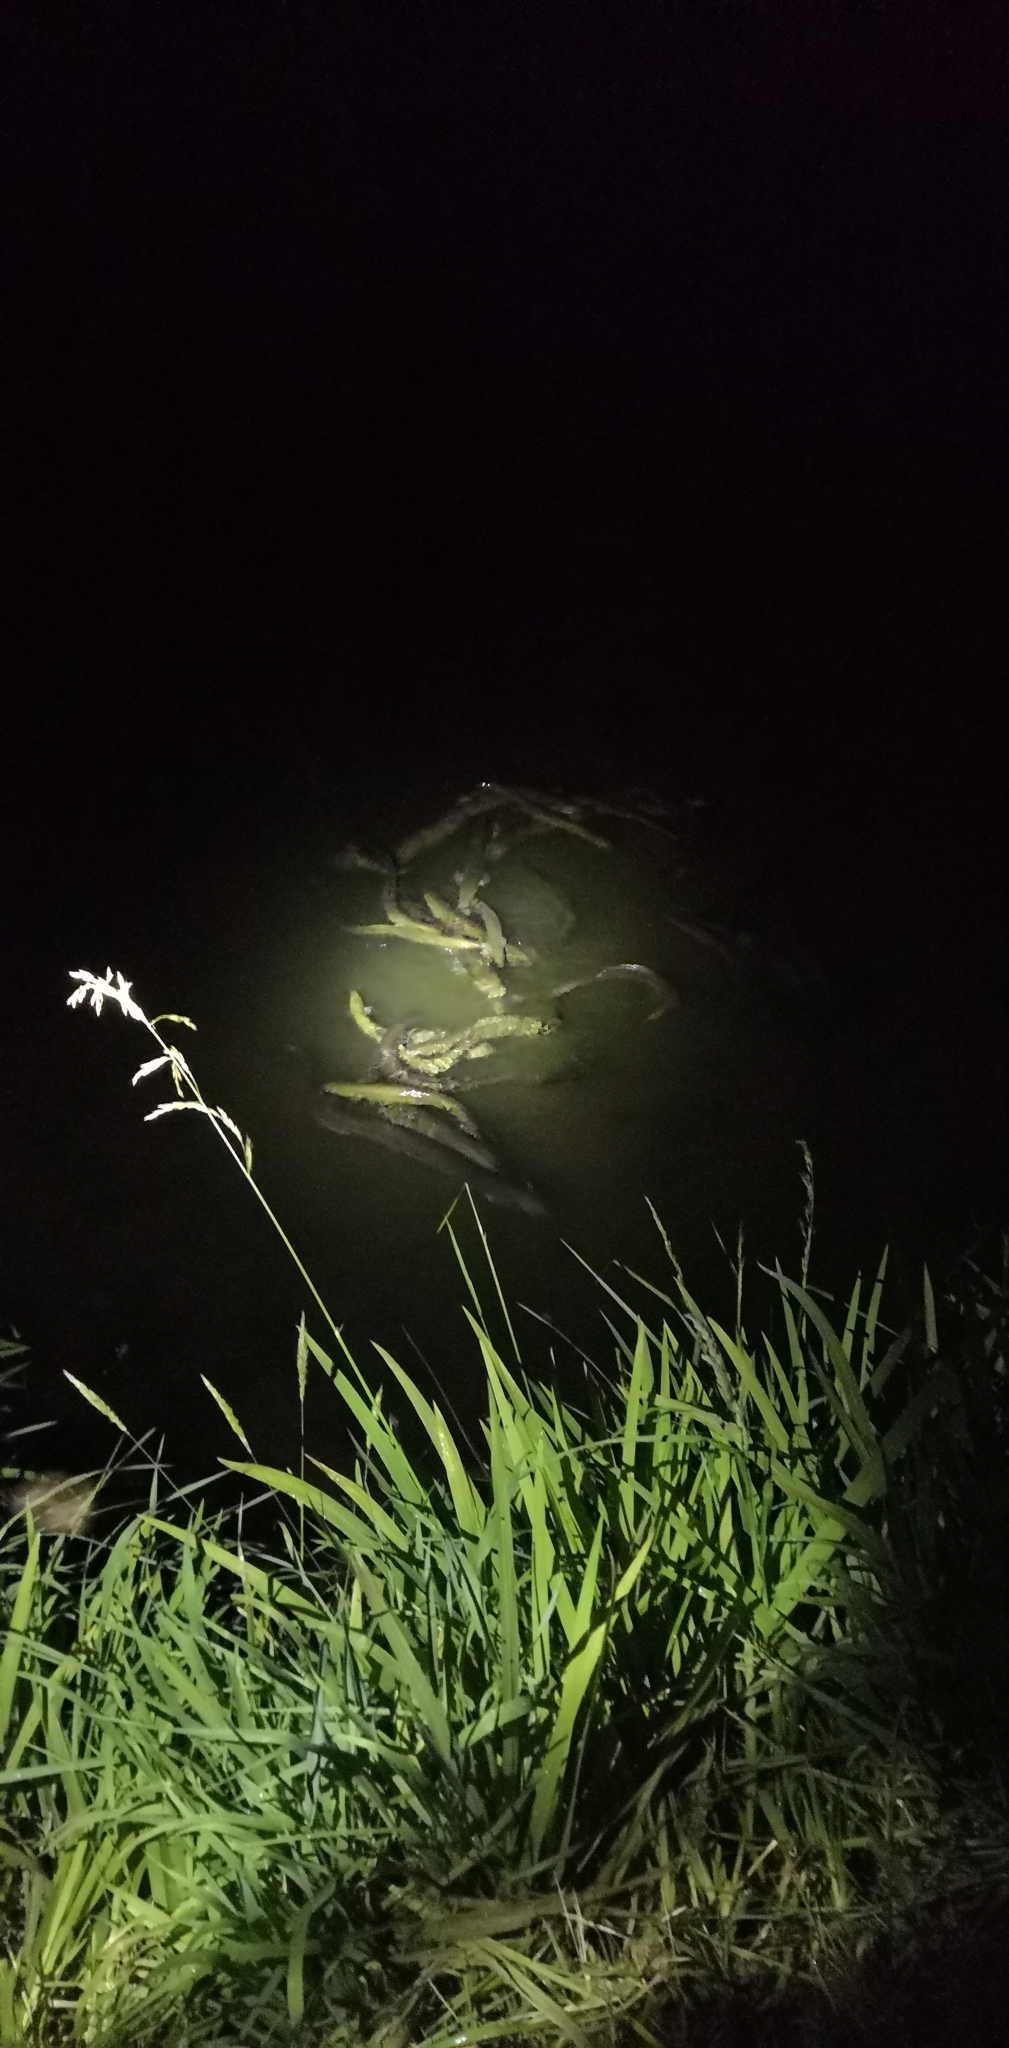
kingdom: Animalia
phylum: Chordata
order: Anguilliformes
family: Anguillidae
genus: Anguilla
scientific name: Anguilla dieffenbachii
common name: New zealand longfin eel
